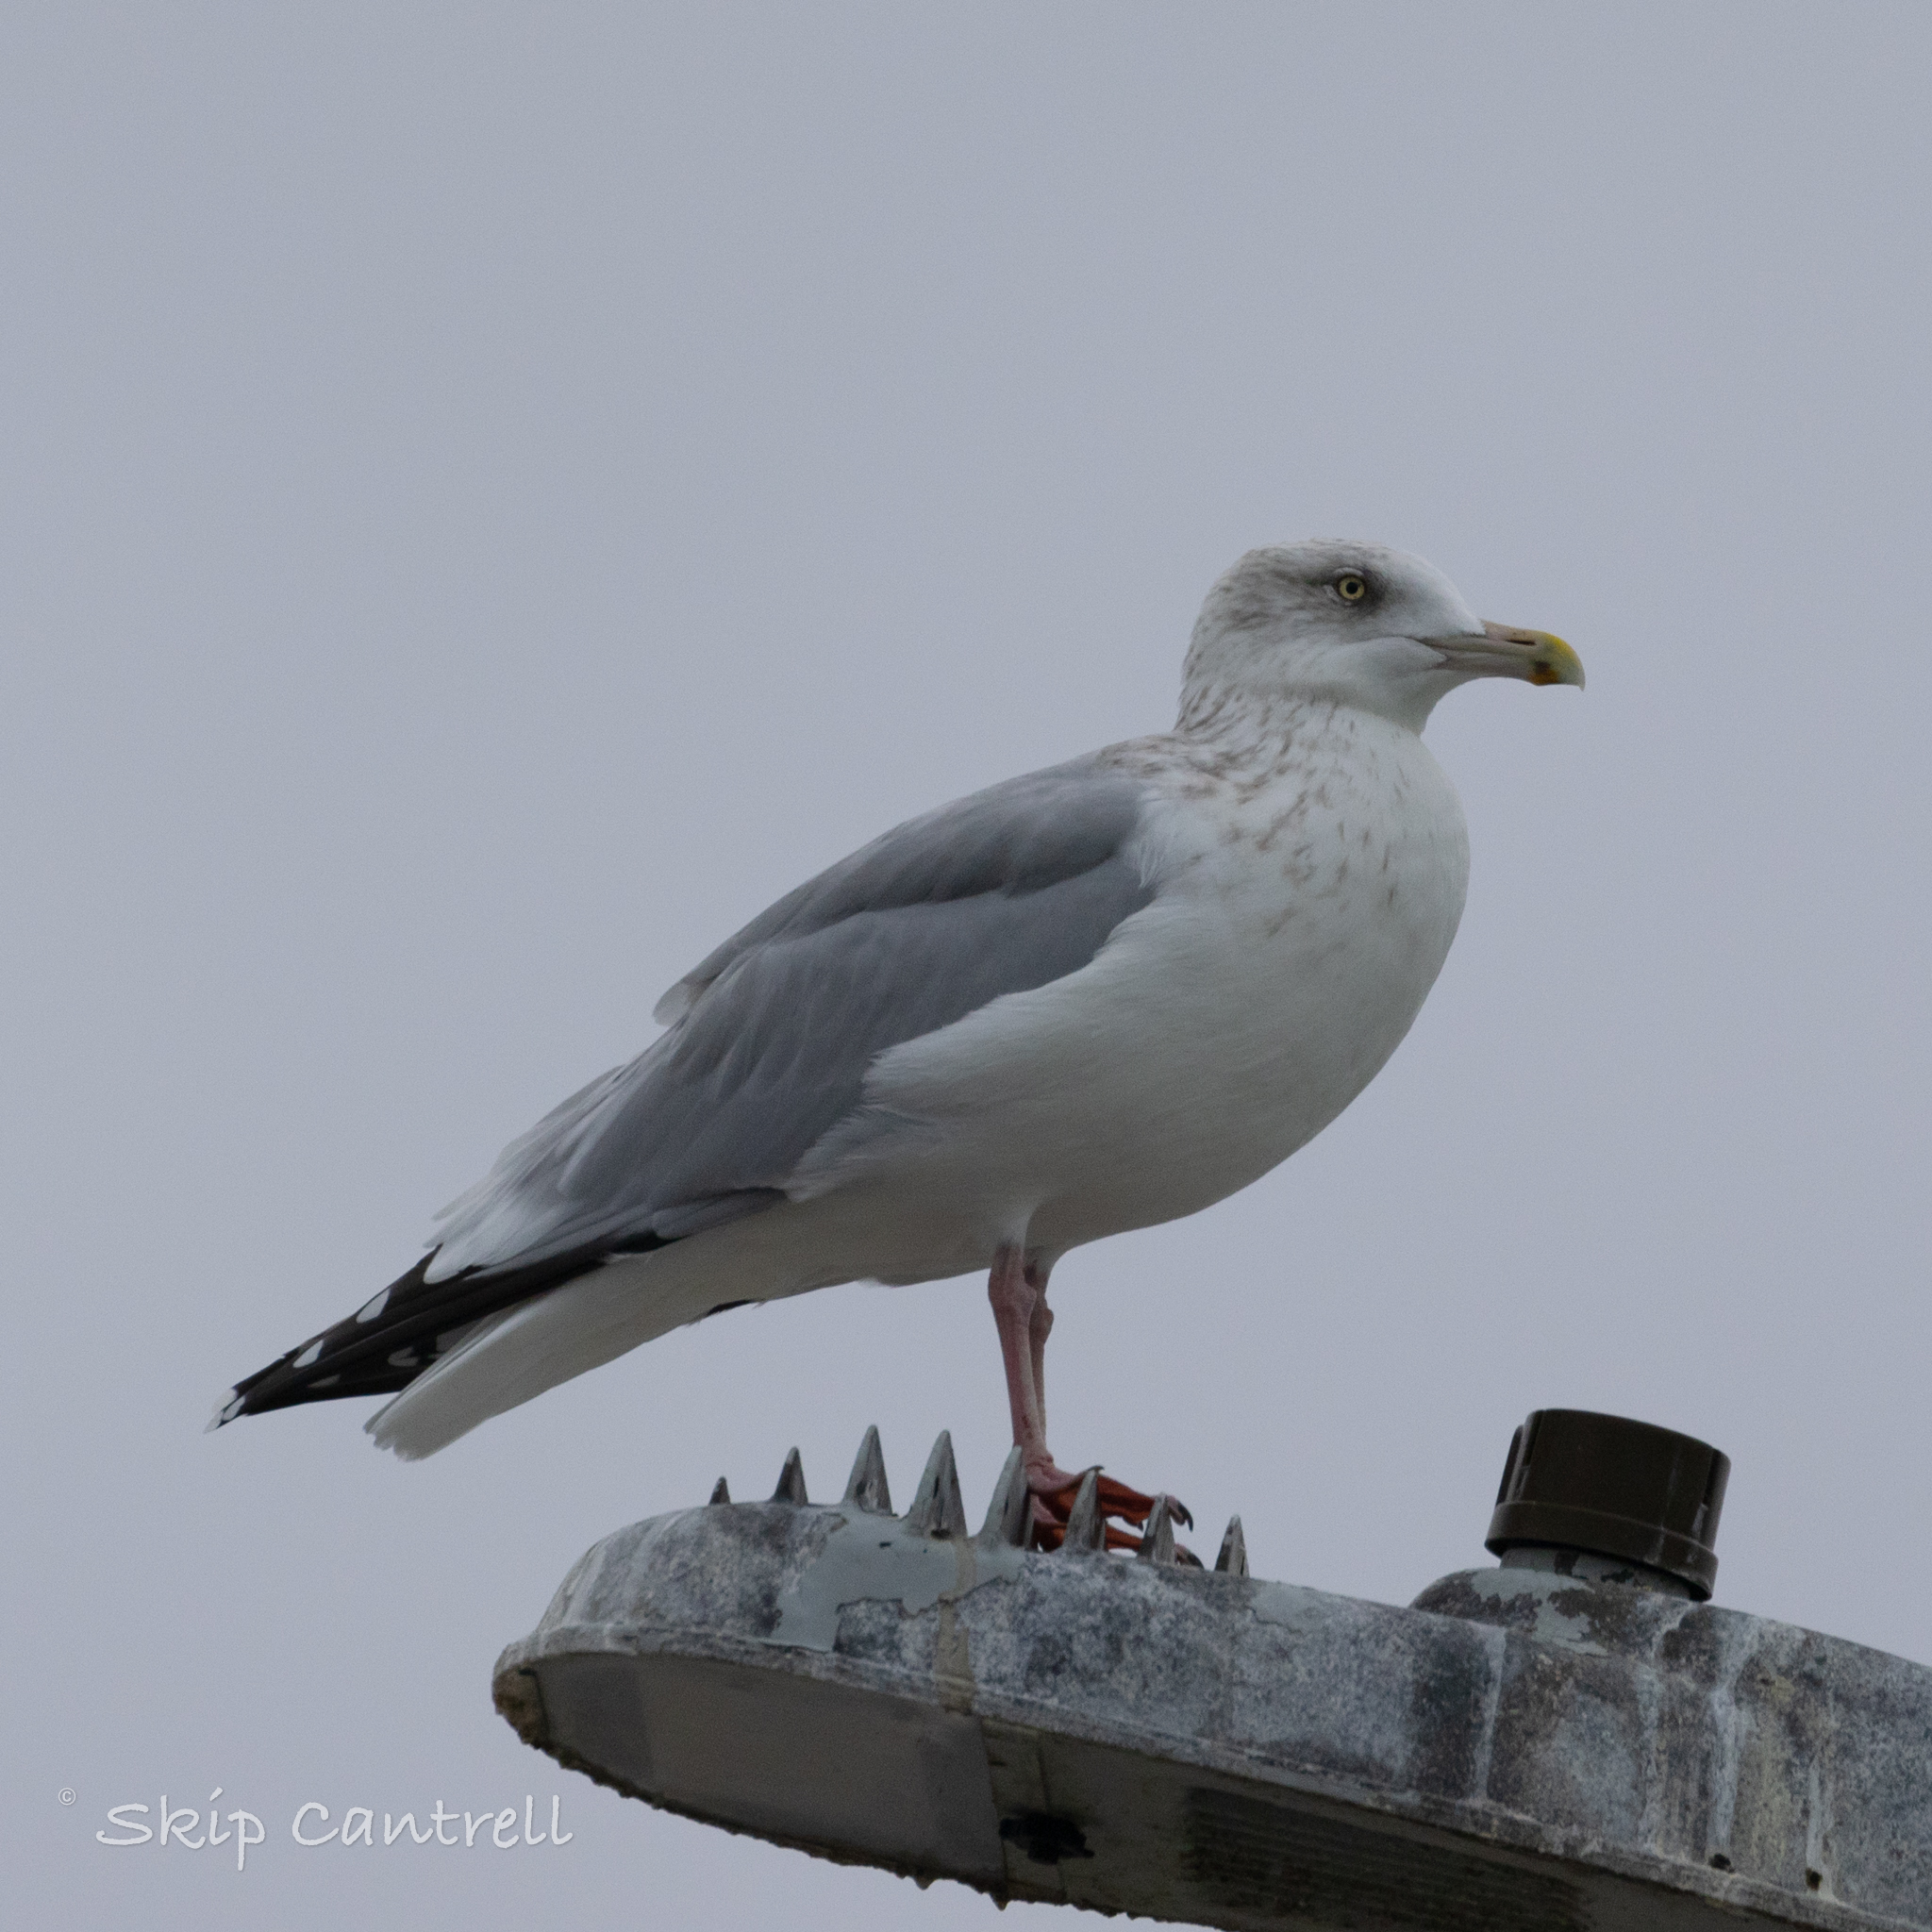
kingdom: Animalia
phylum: Chordata
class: Aves
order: Charadriiformes
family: Laridae
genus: Larus
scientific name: Larus argentatus
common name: Herring gull
